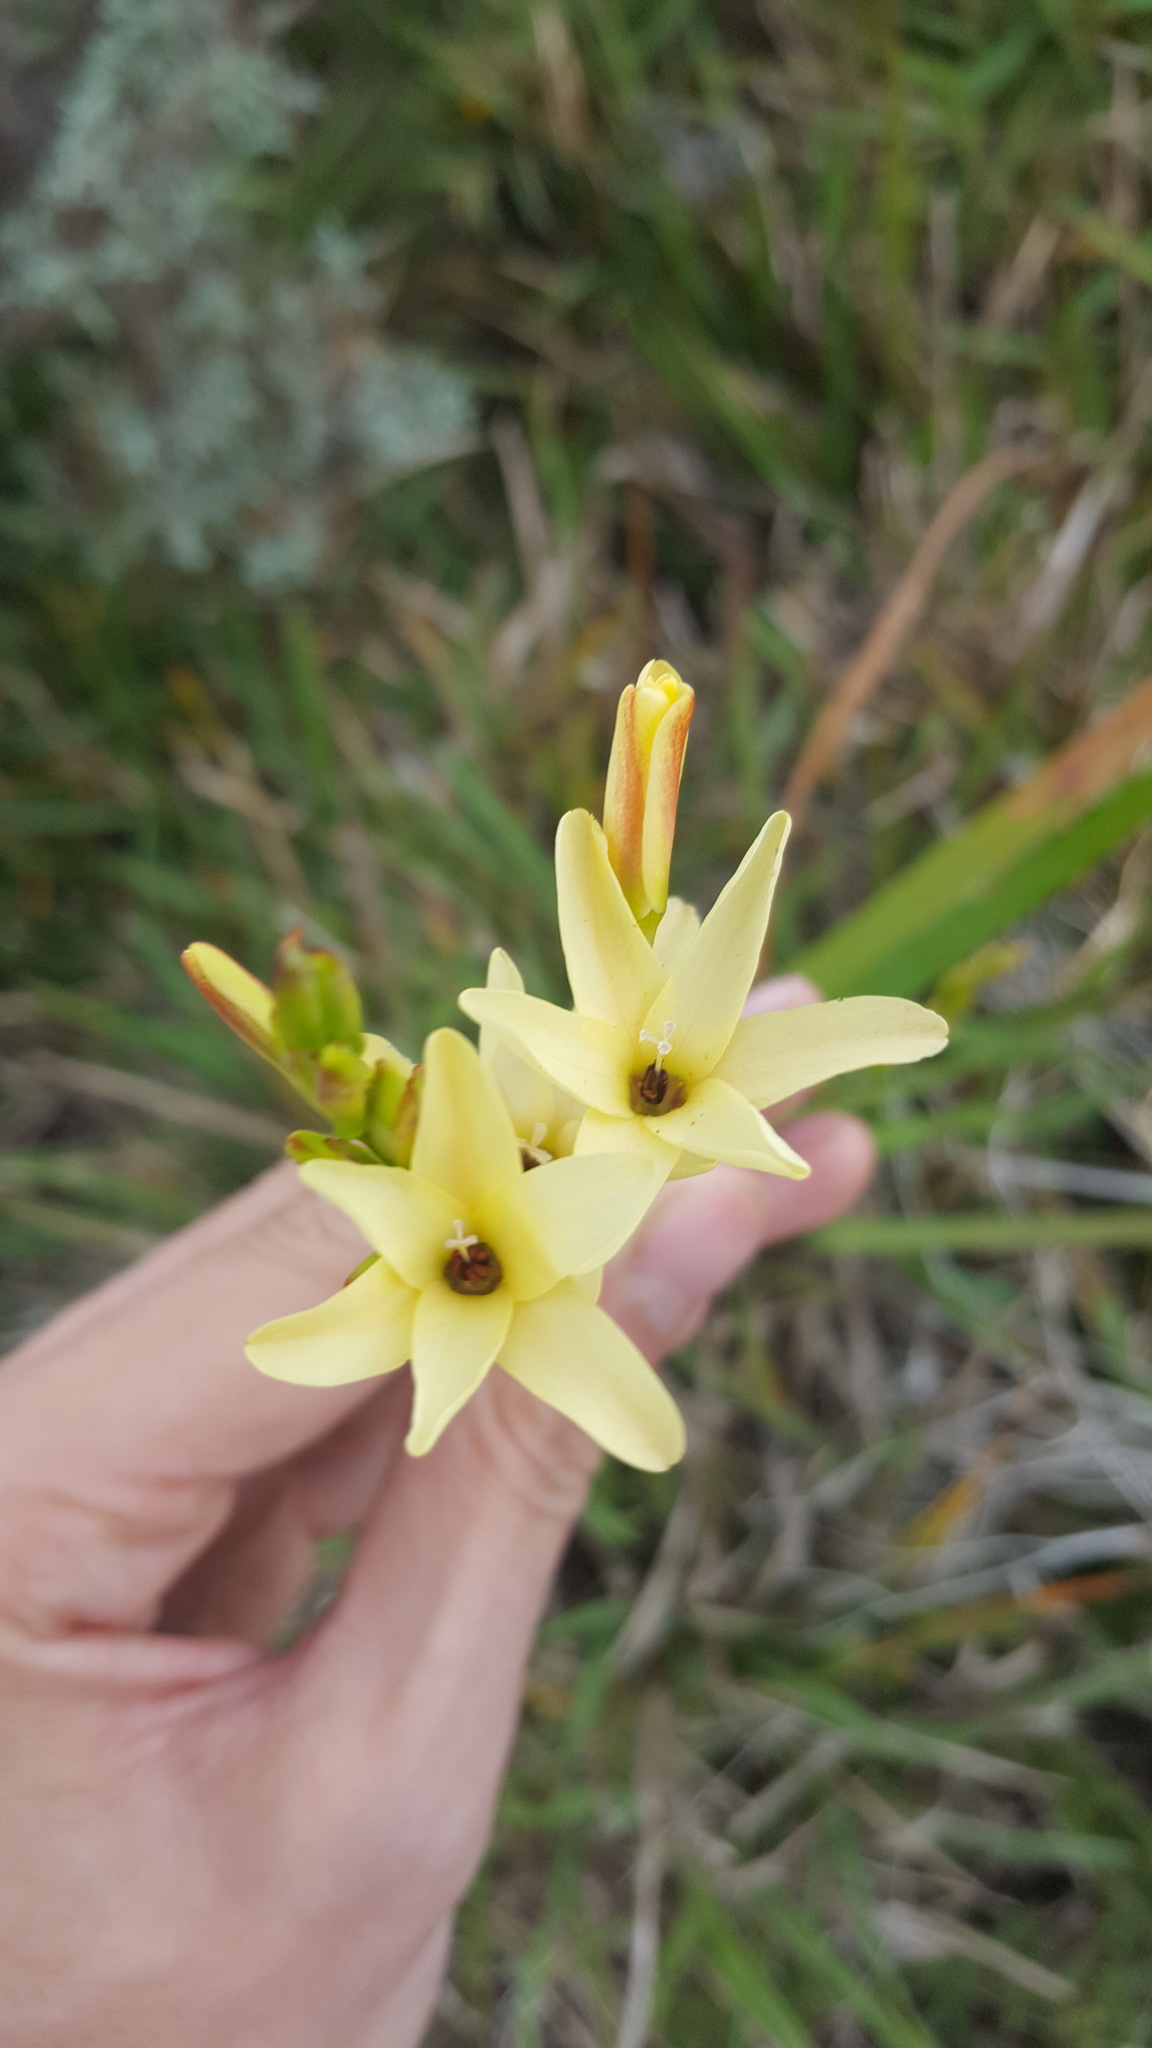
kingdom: Plantae
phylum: Tracheophyta
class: Liliopsida
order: Asparagales
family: Iridaceae
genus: Ixia
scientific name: Ixia paniculata
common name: Tubular corn-lily
